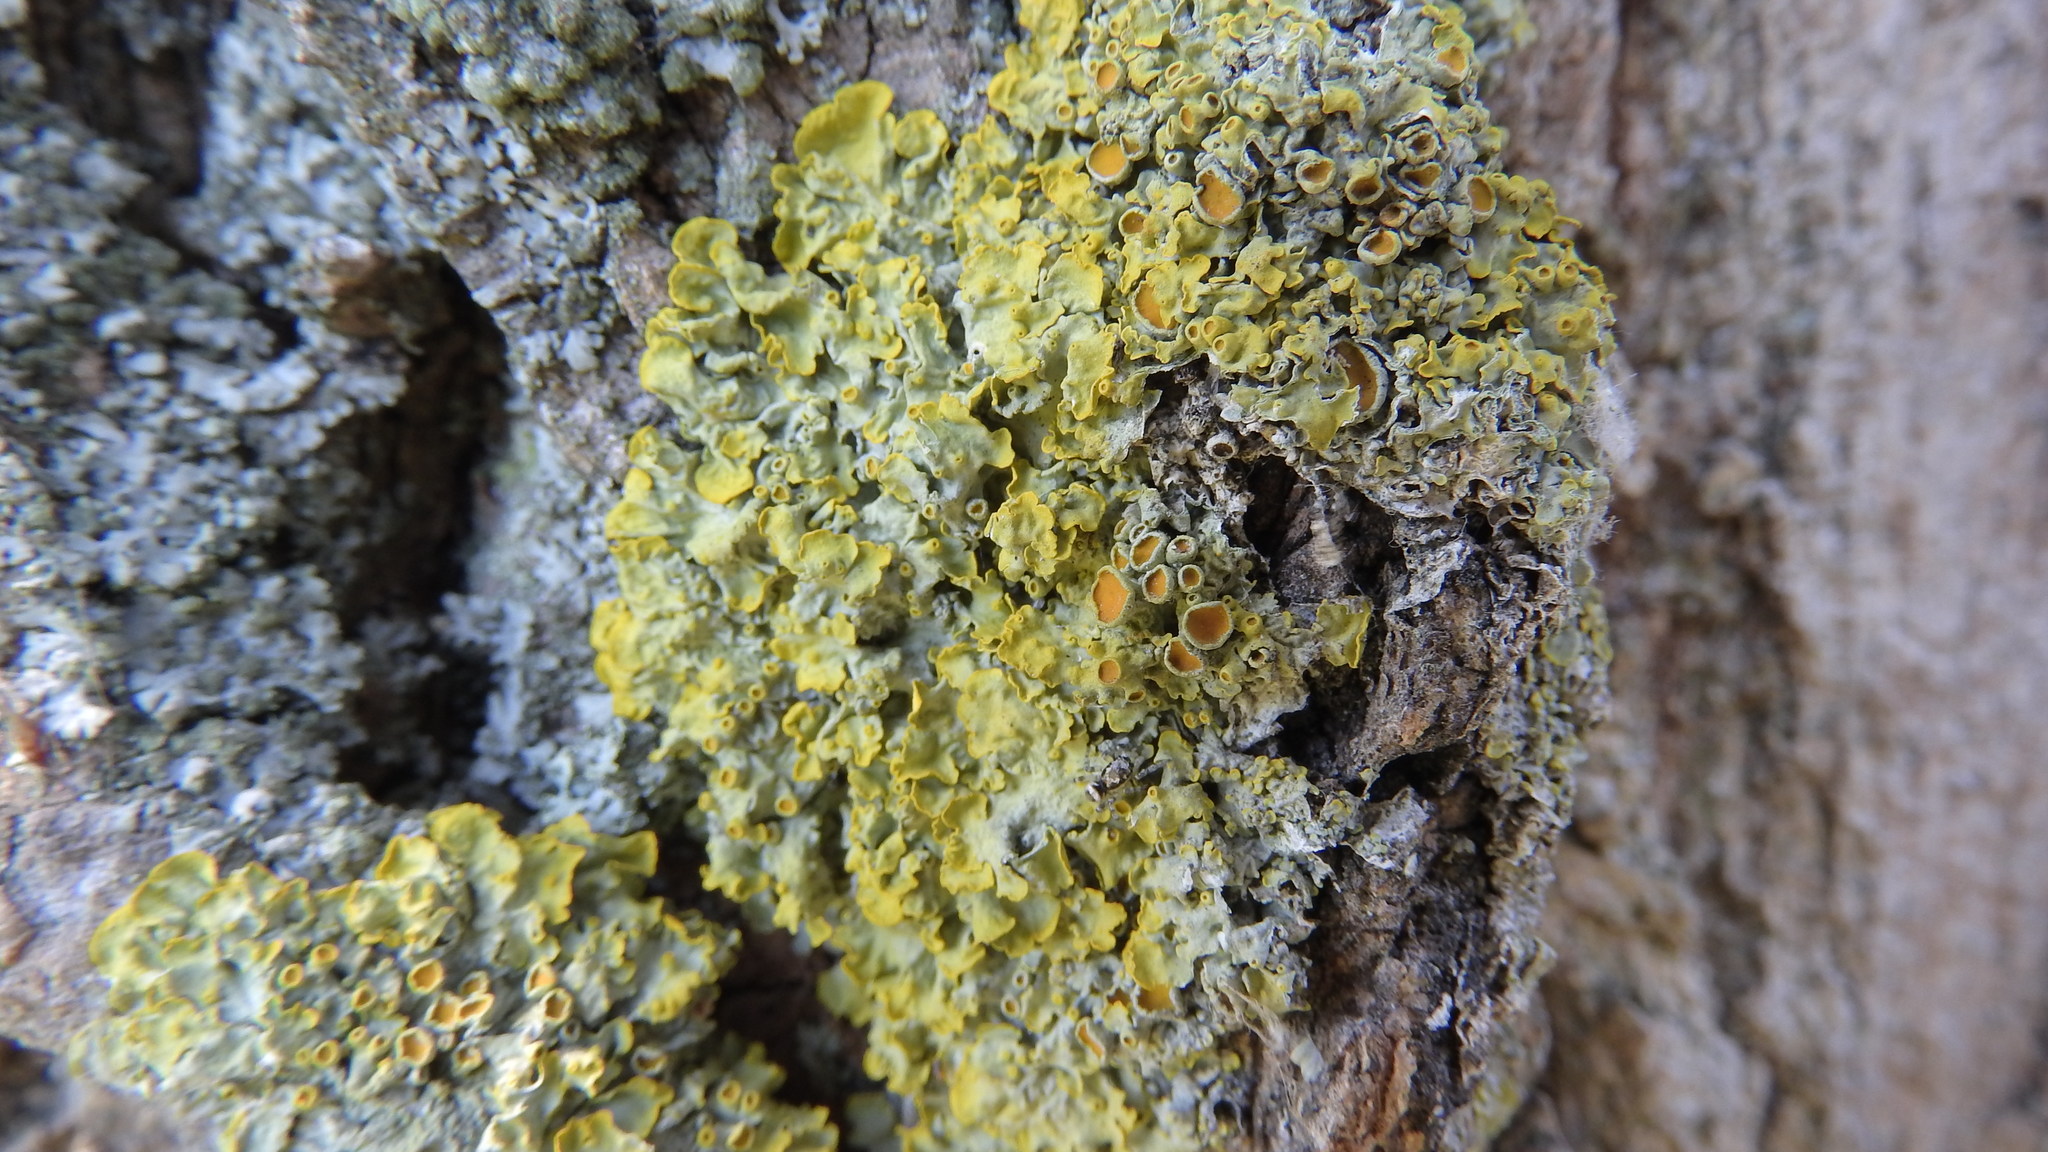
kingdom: Fungi
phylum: Ascomycota
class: Lecanoromycetes
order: Teloschistales
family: Teloschistaceae
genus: Xanthoria
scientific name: Xanthoria parietina
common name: Common orange lichen
